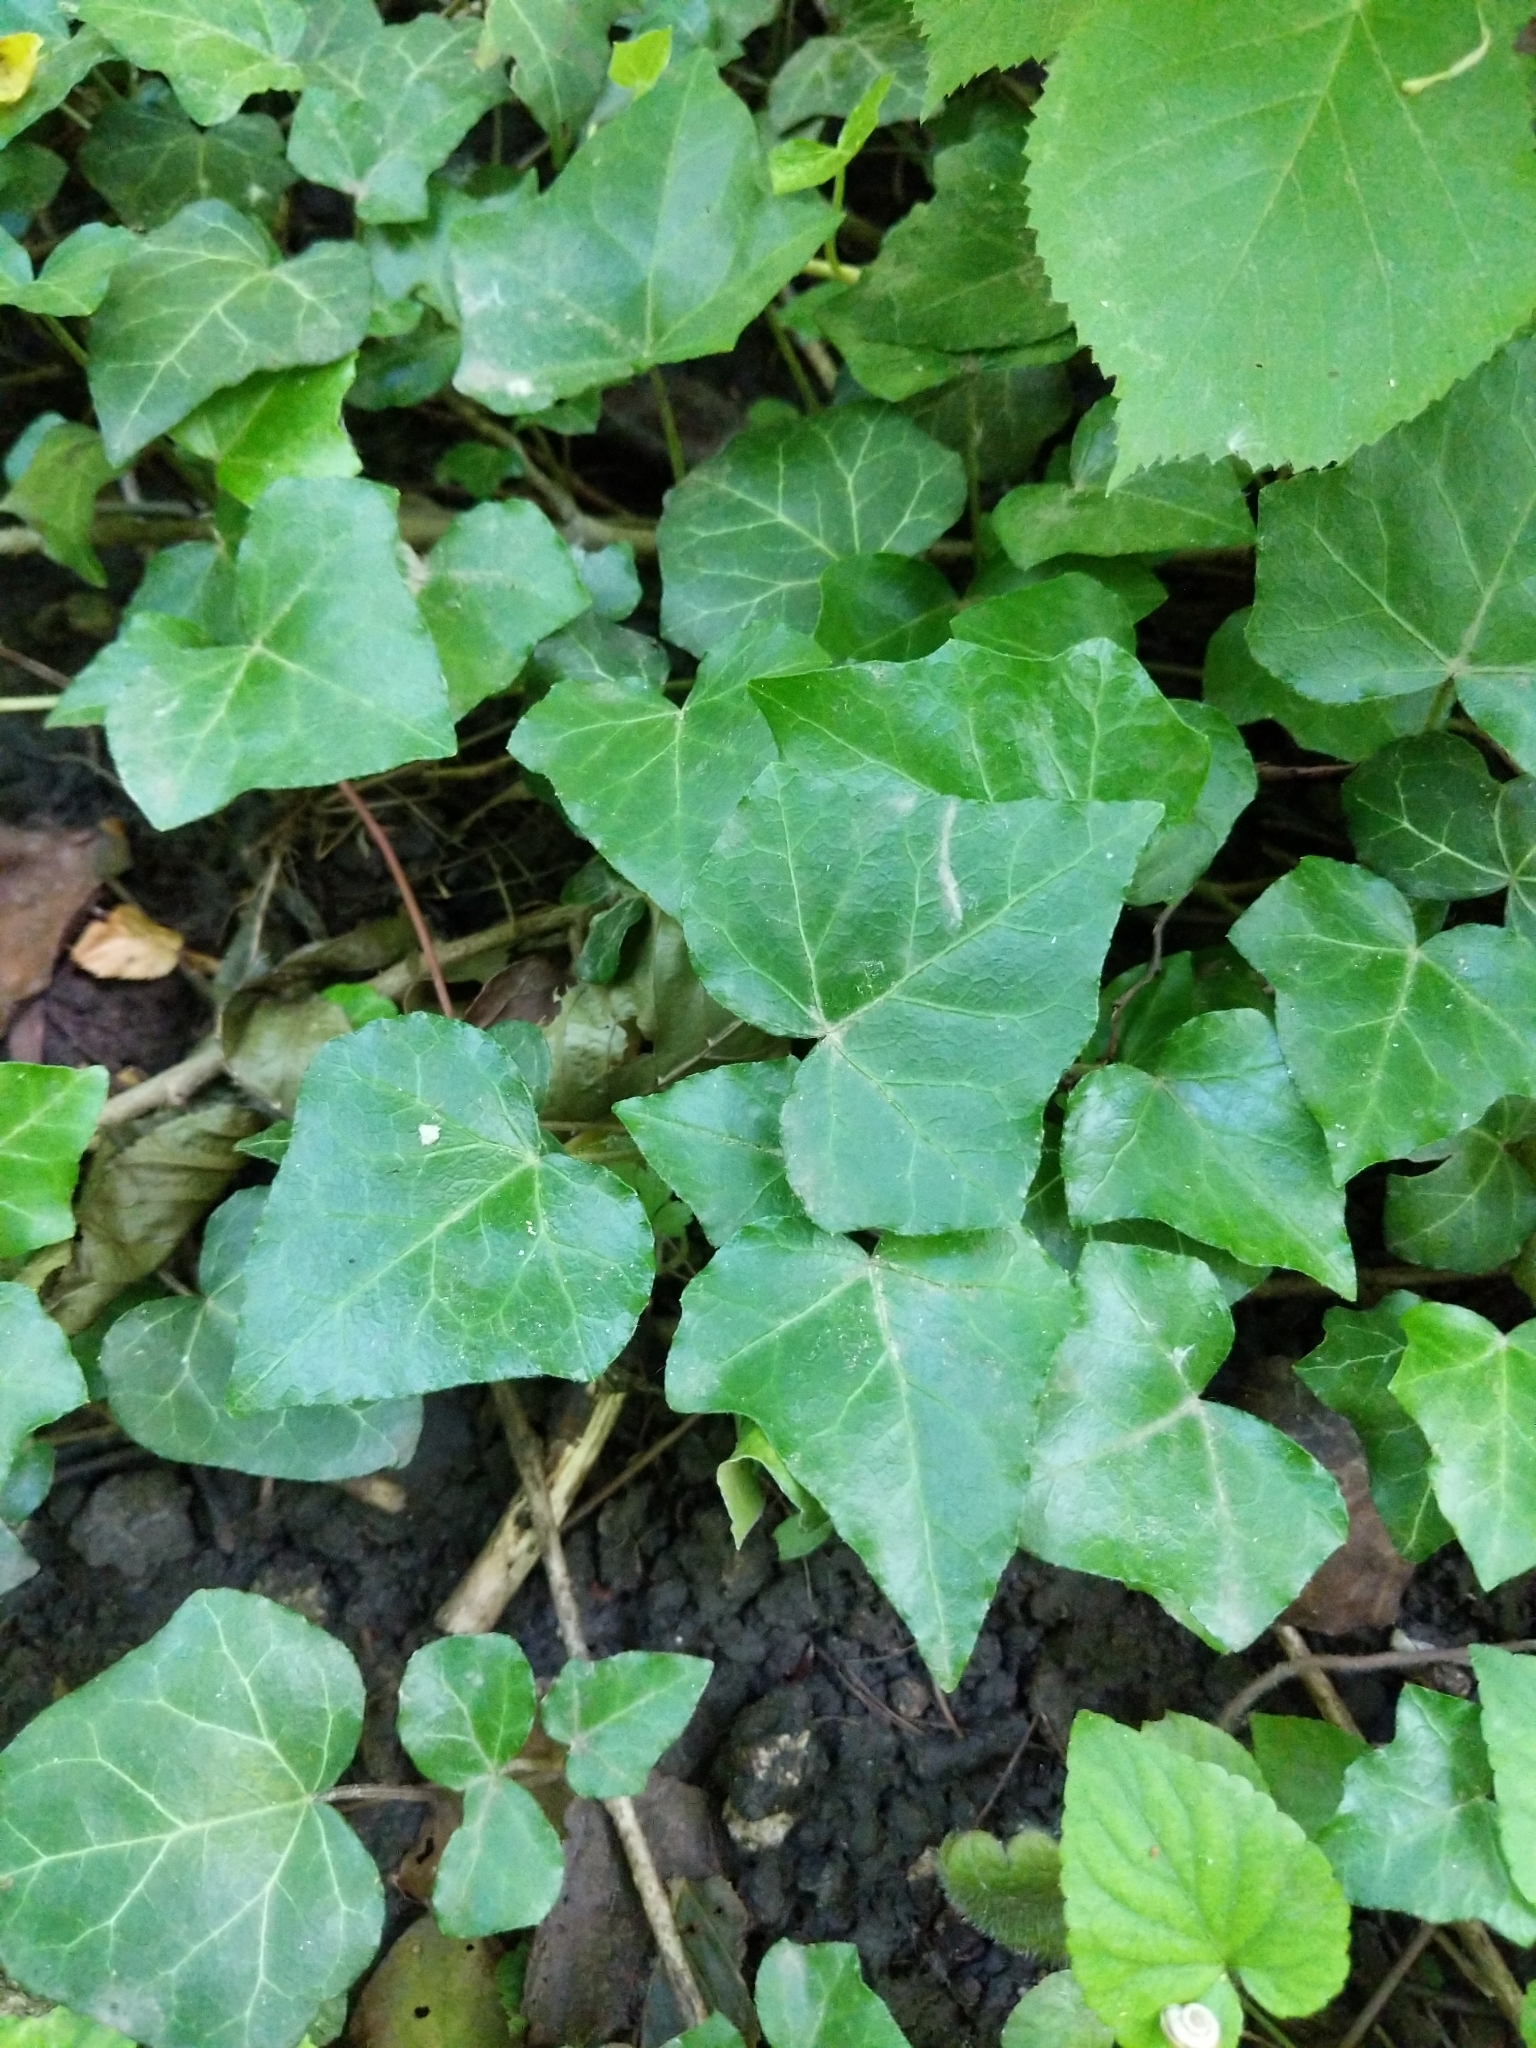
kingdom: Plantae
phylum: Tracheophyta
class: Magnoliopsida
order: Apiales
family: Araliaceae
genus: Hedera
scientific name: Hedera helix
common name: Ivy
